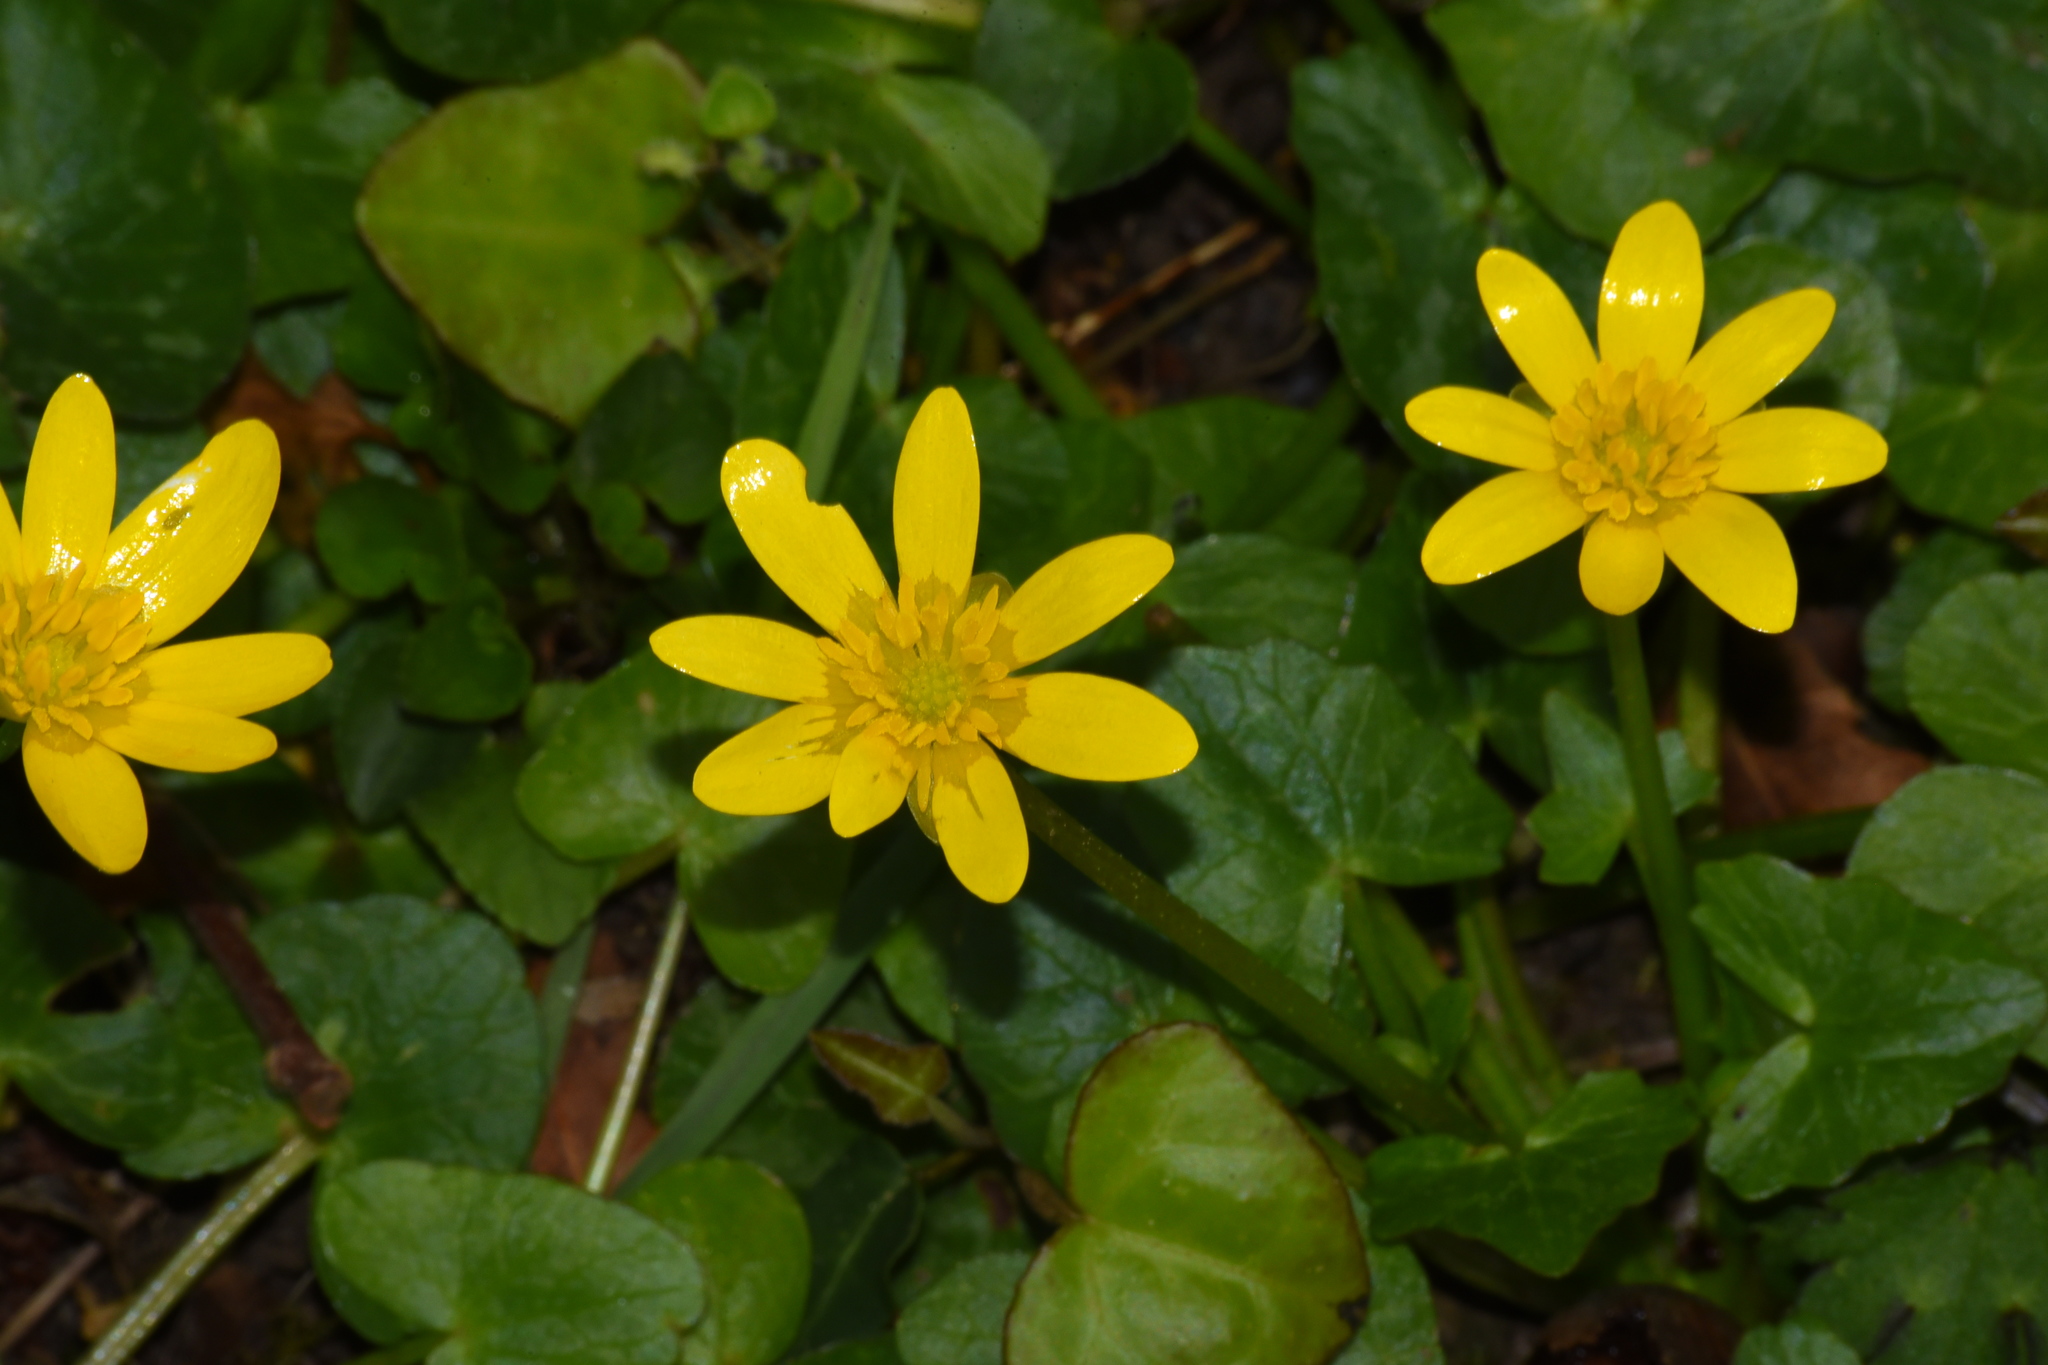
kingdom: Plantae
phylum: Tracheophyta
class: Magnoliopsida
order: Ranunculales
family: Ranunculaceae
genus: Ficaria
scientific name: Ficaria verna
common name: Lesser celandine
